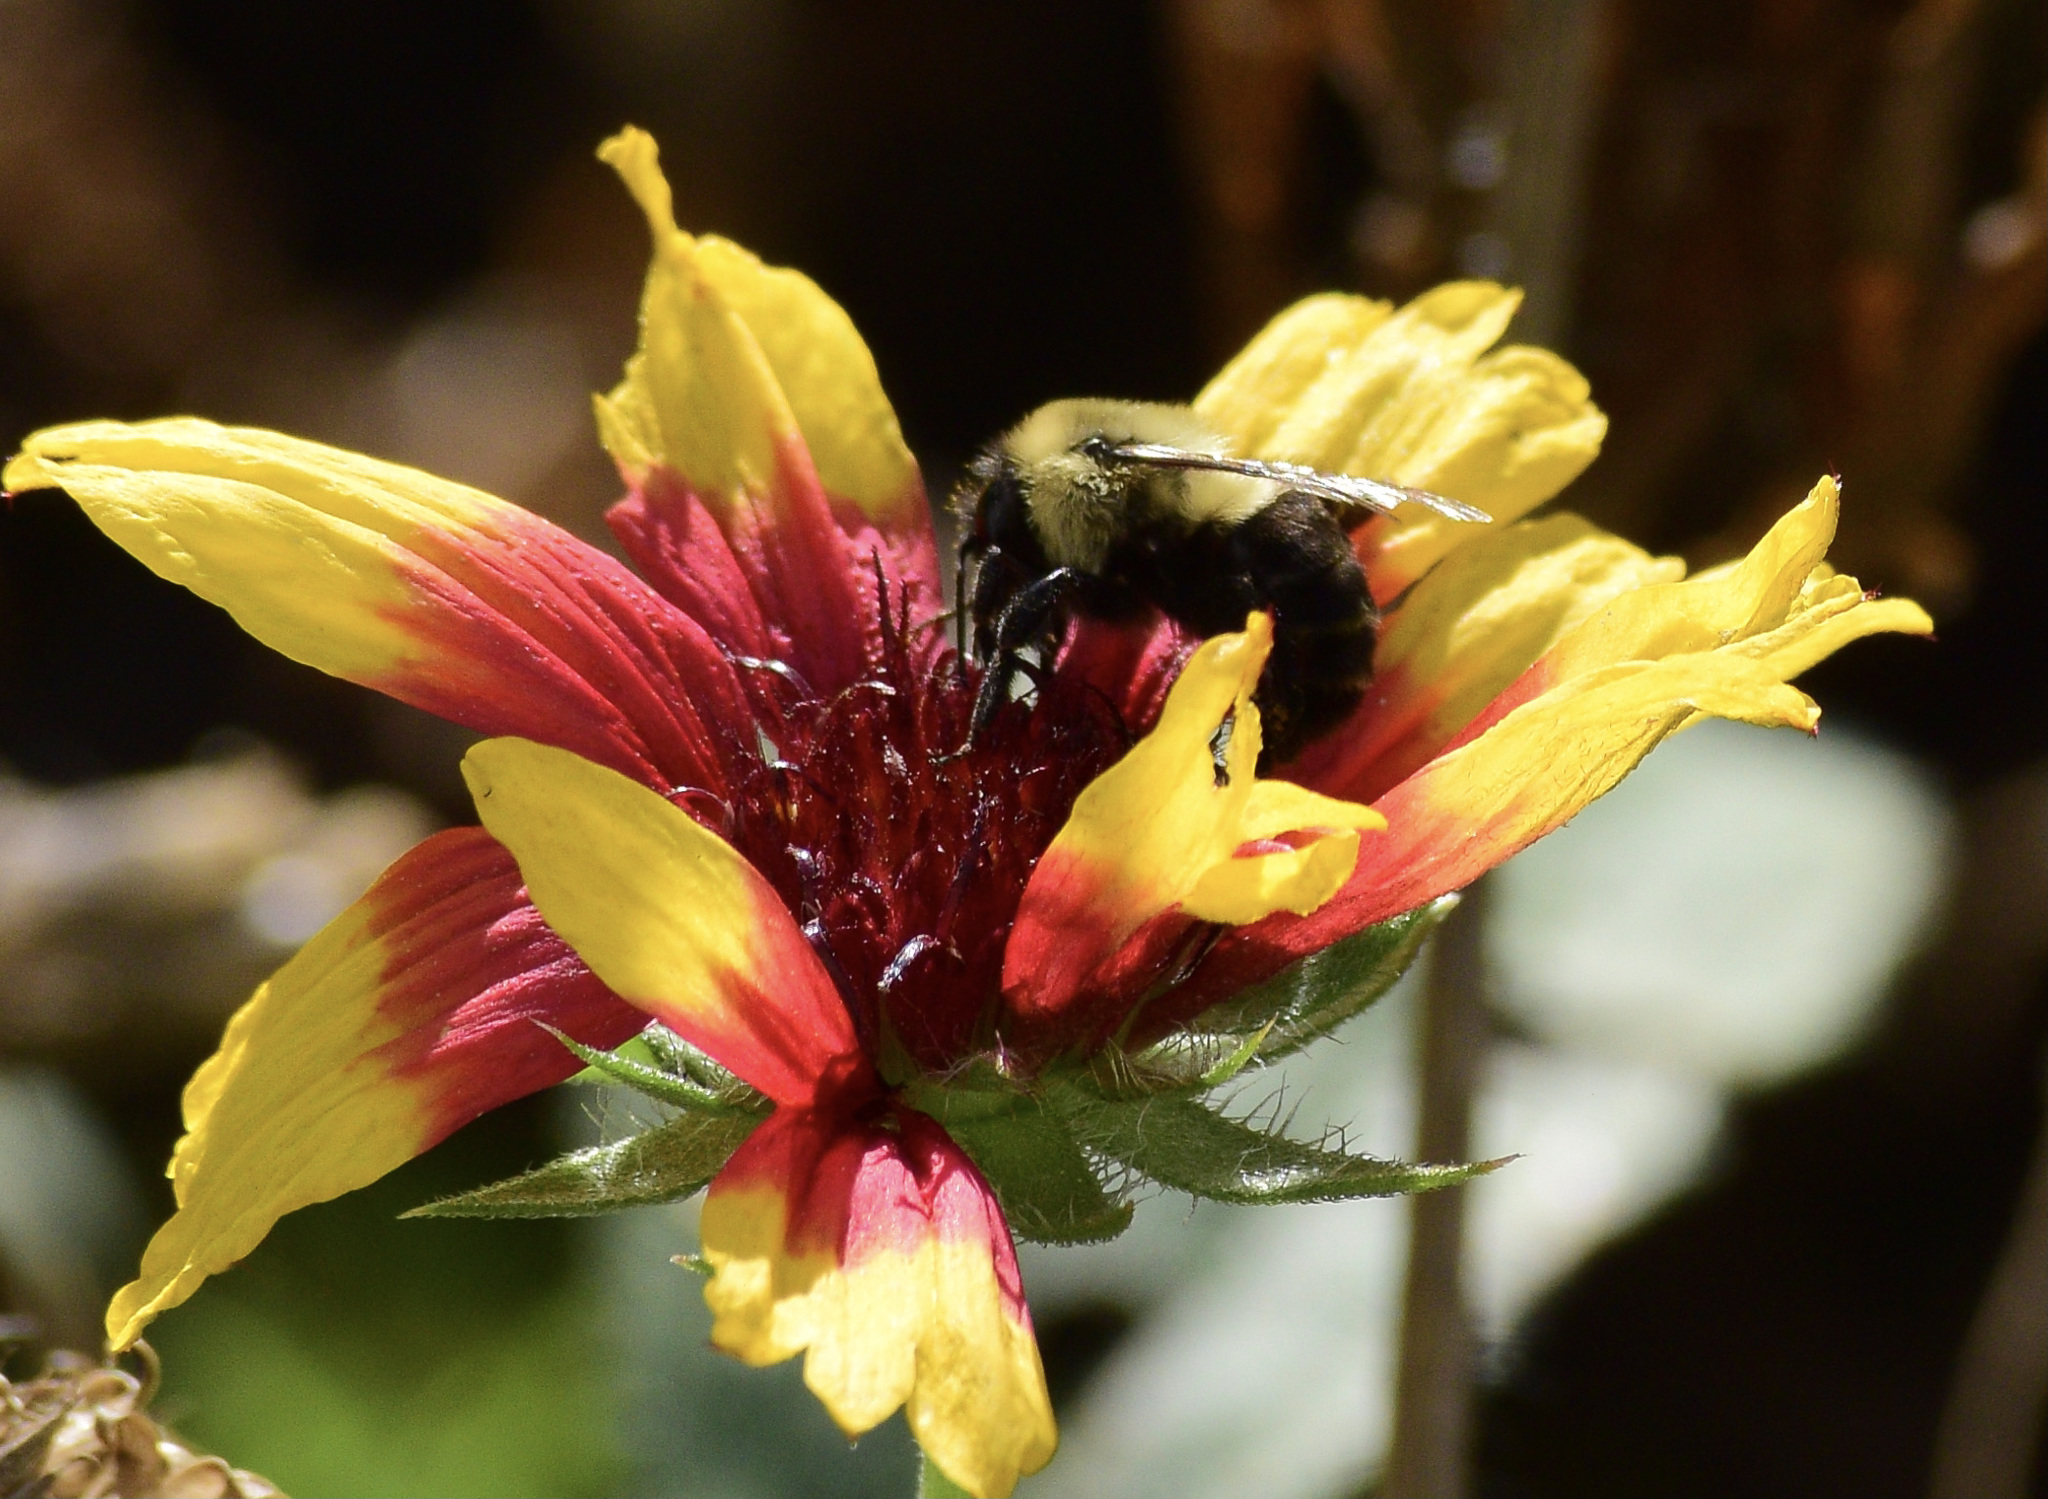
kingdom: Animalia
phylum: Arthropoda
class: Insecta
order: Hymenoptera
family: Apidae
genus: Bombus
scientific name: Bombus impatiens
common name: Common eastern bumble bee
